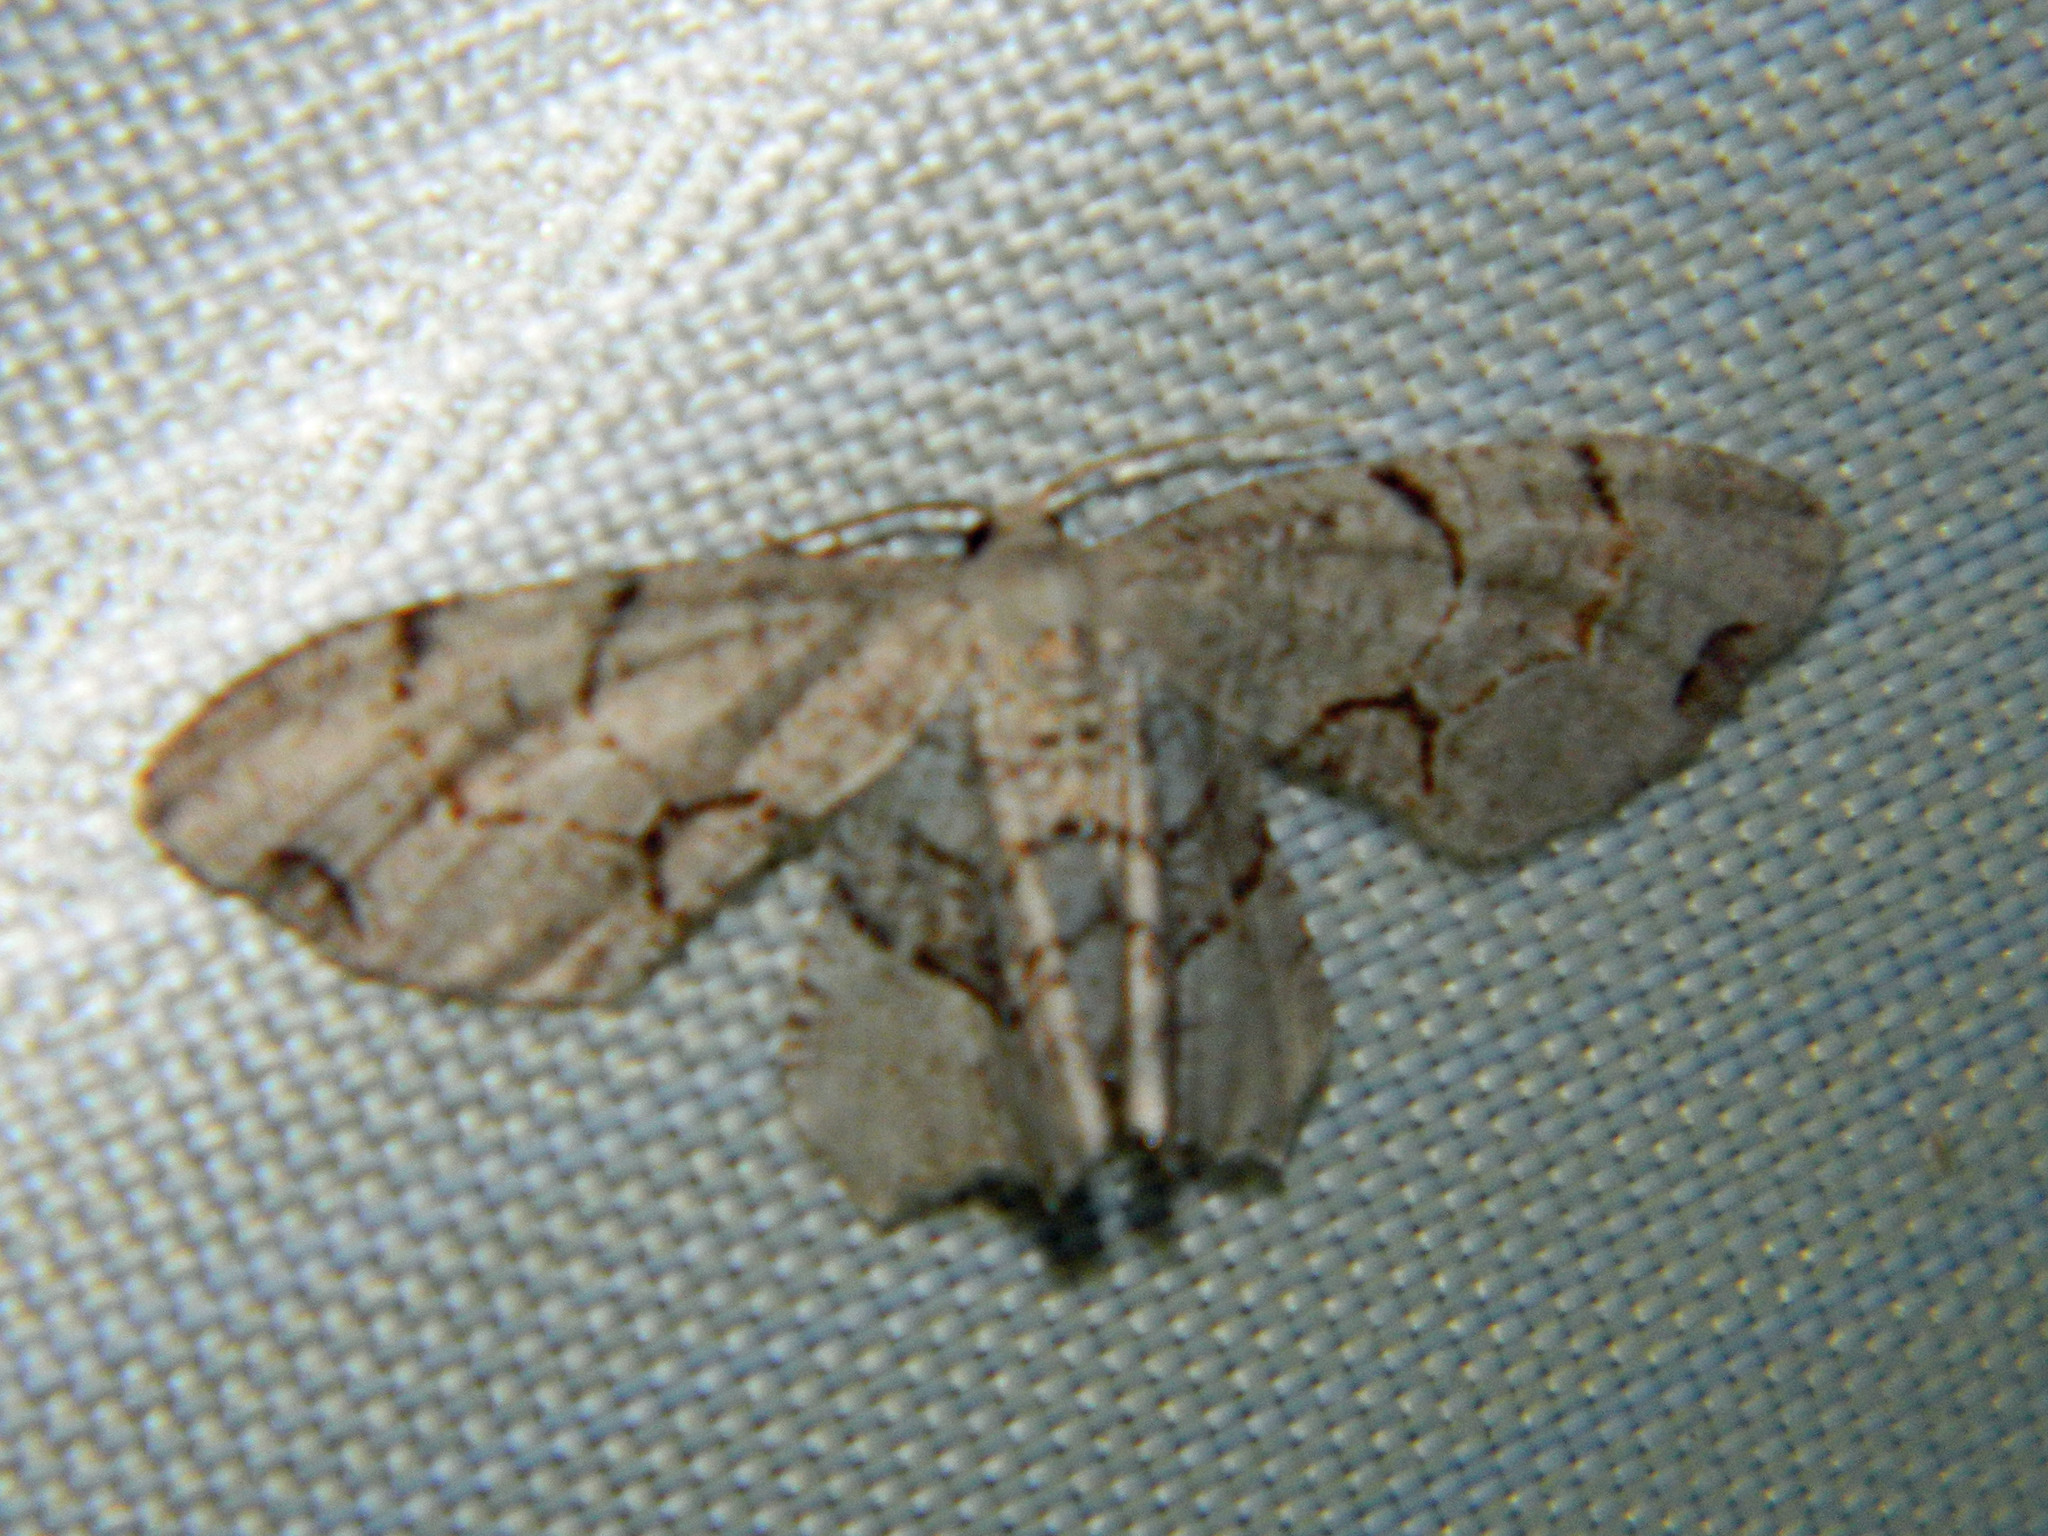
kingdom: Animalia
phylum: Arthropoda
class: Insecta
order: Lepidoptera
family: Uraniidae
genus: Epiplema
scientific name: Epiplema Callizzia amorata
